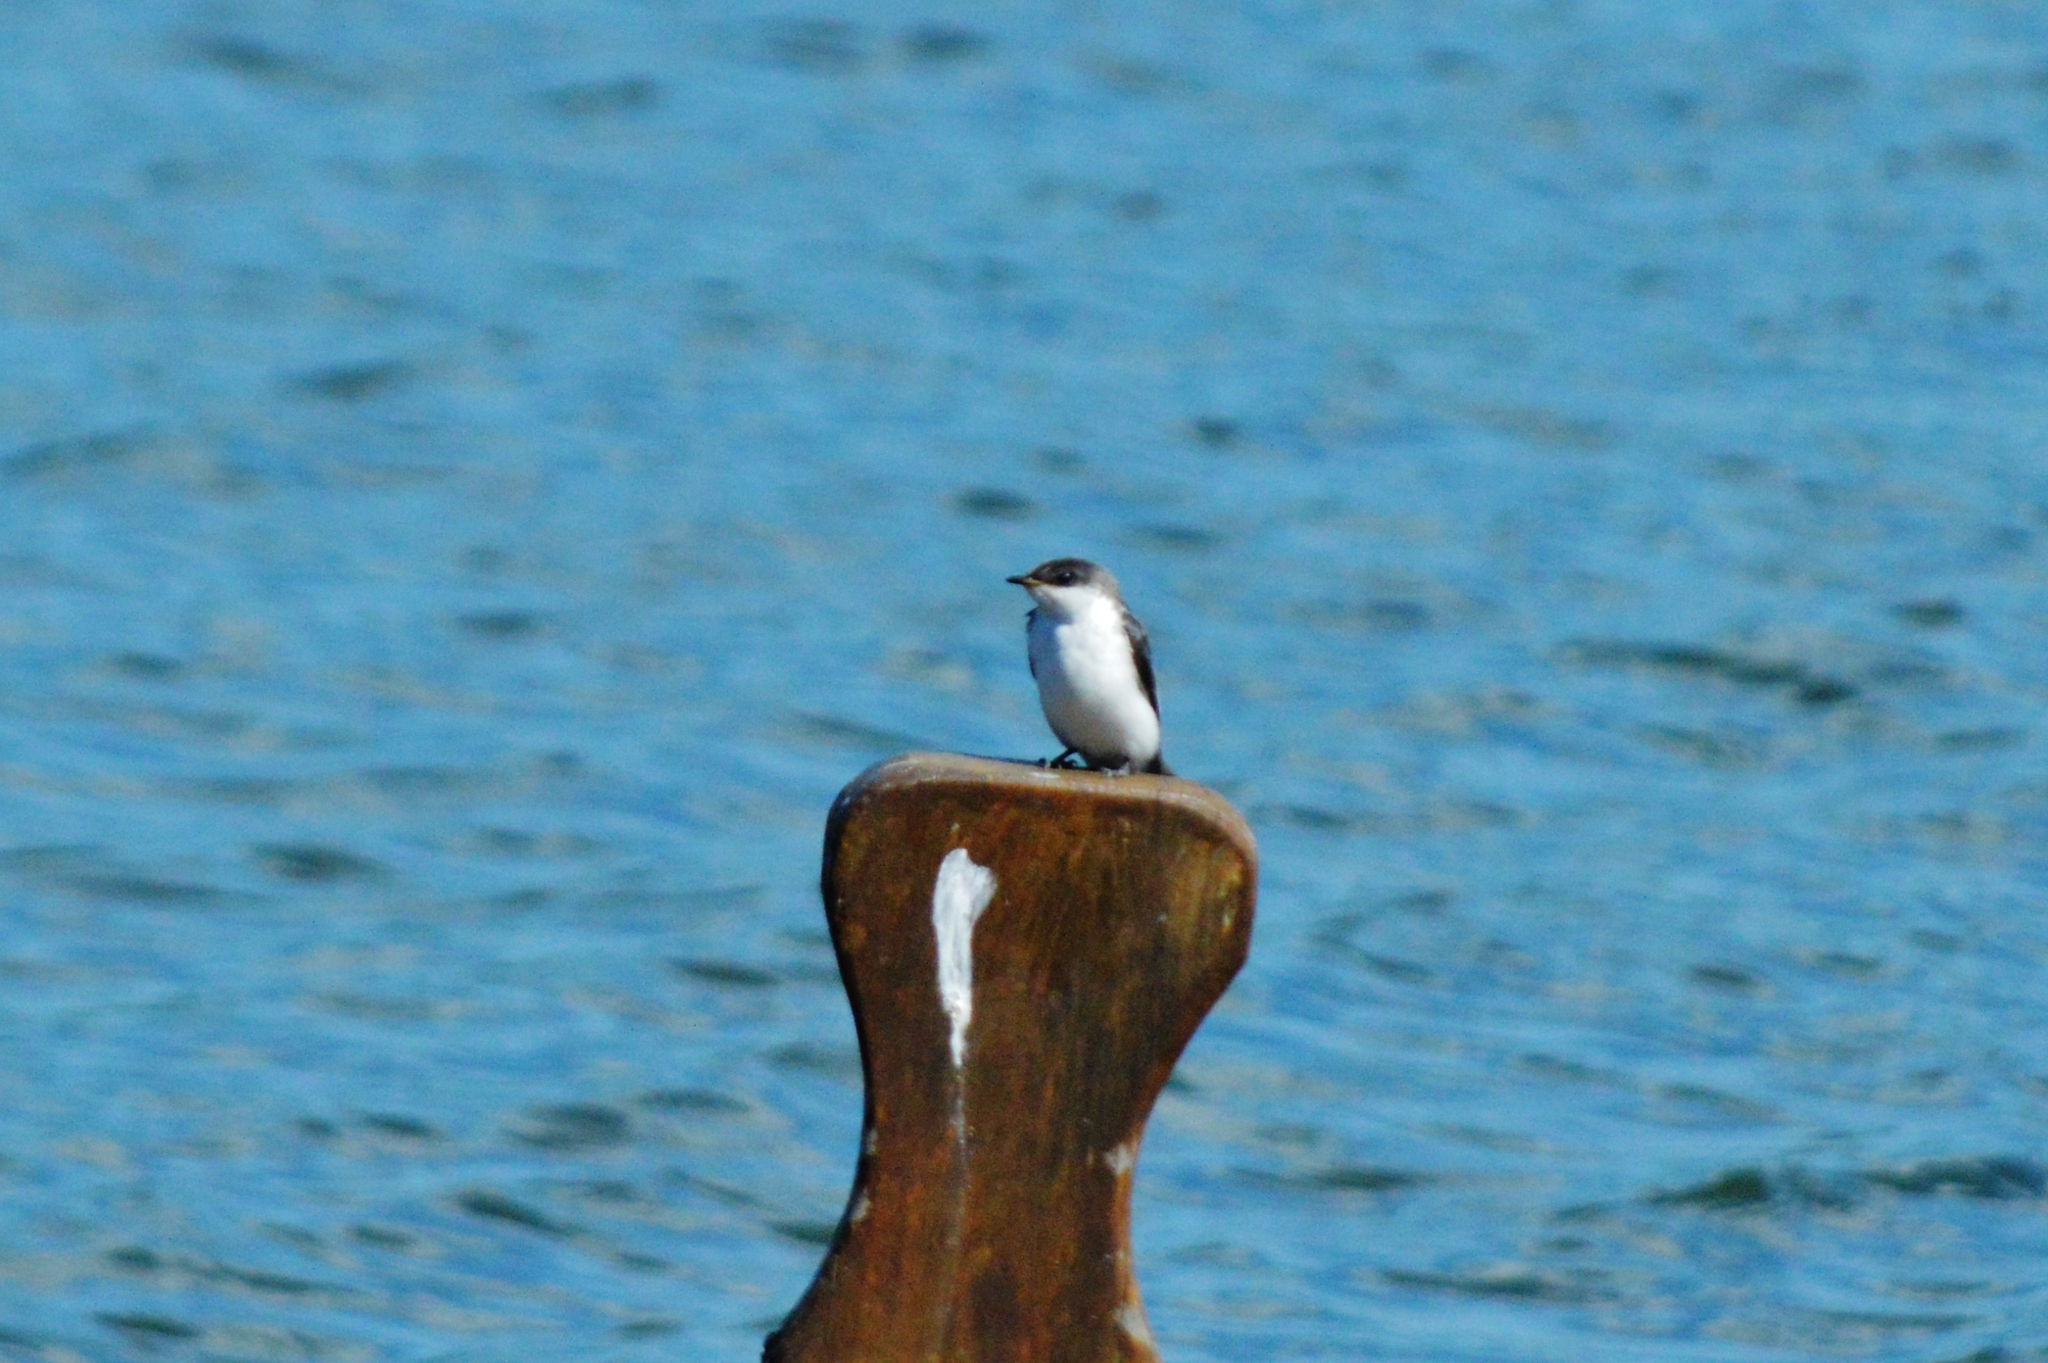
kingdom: Animalia
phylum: Chordata
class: Aves
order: Passeriformes
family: Hirundinidae
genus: Tachycineta
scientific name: Tachycineta albiventer
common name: White-winged swallow
